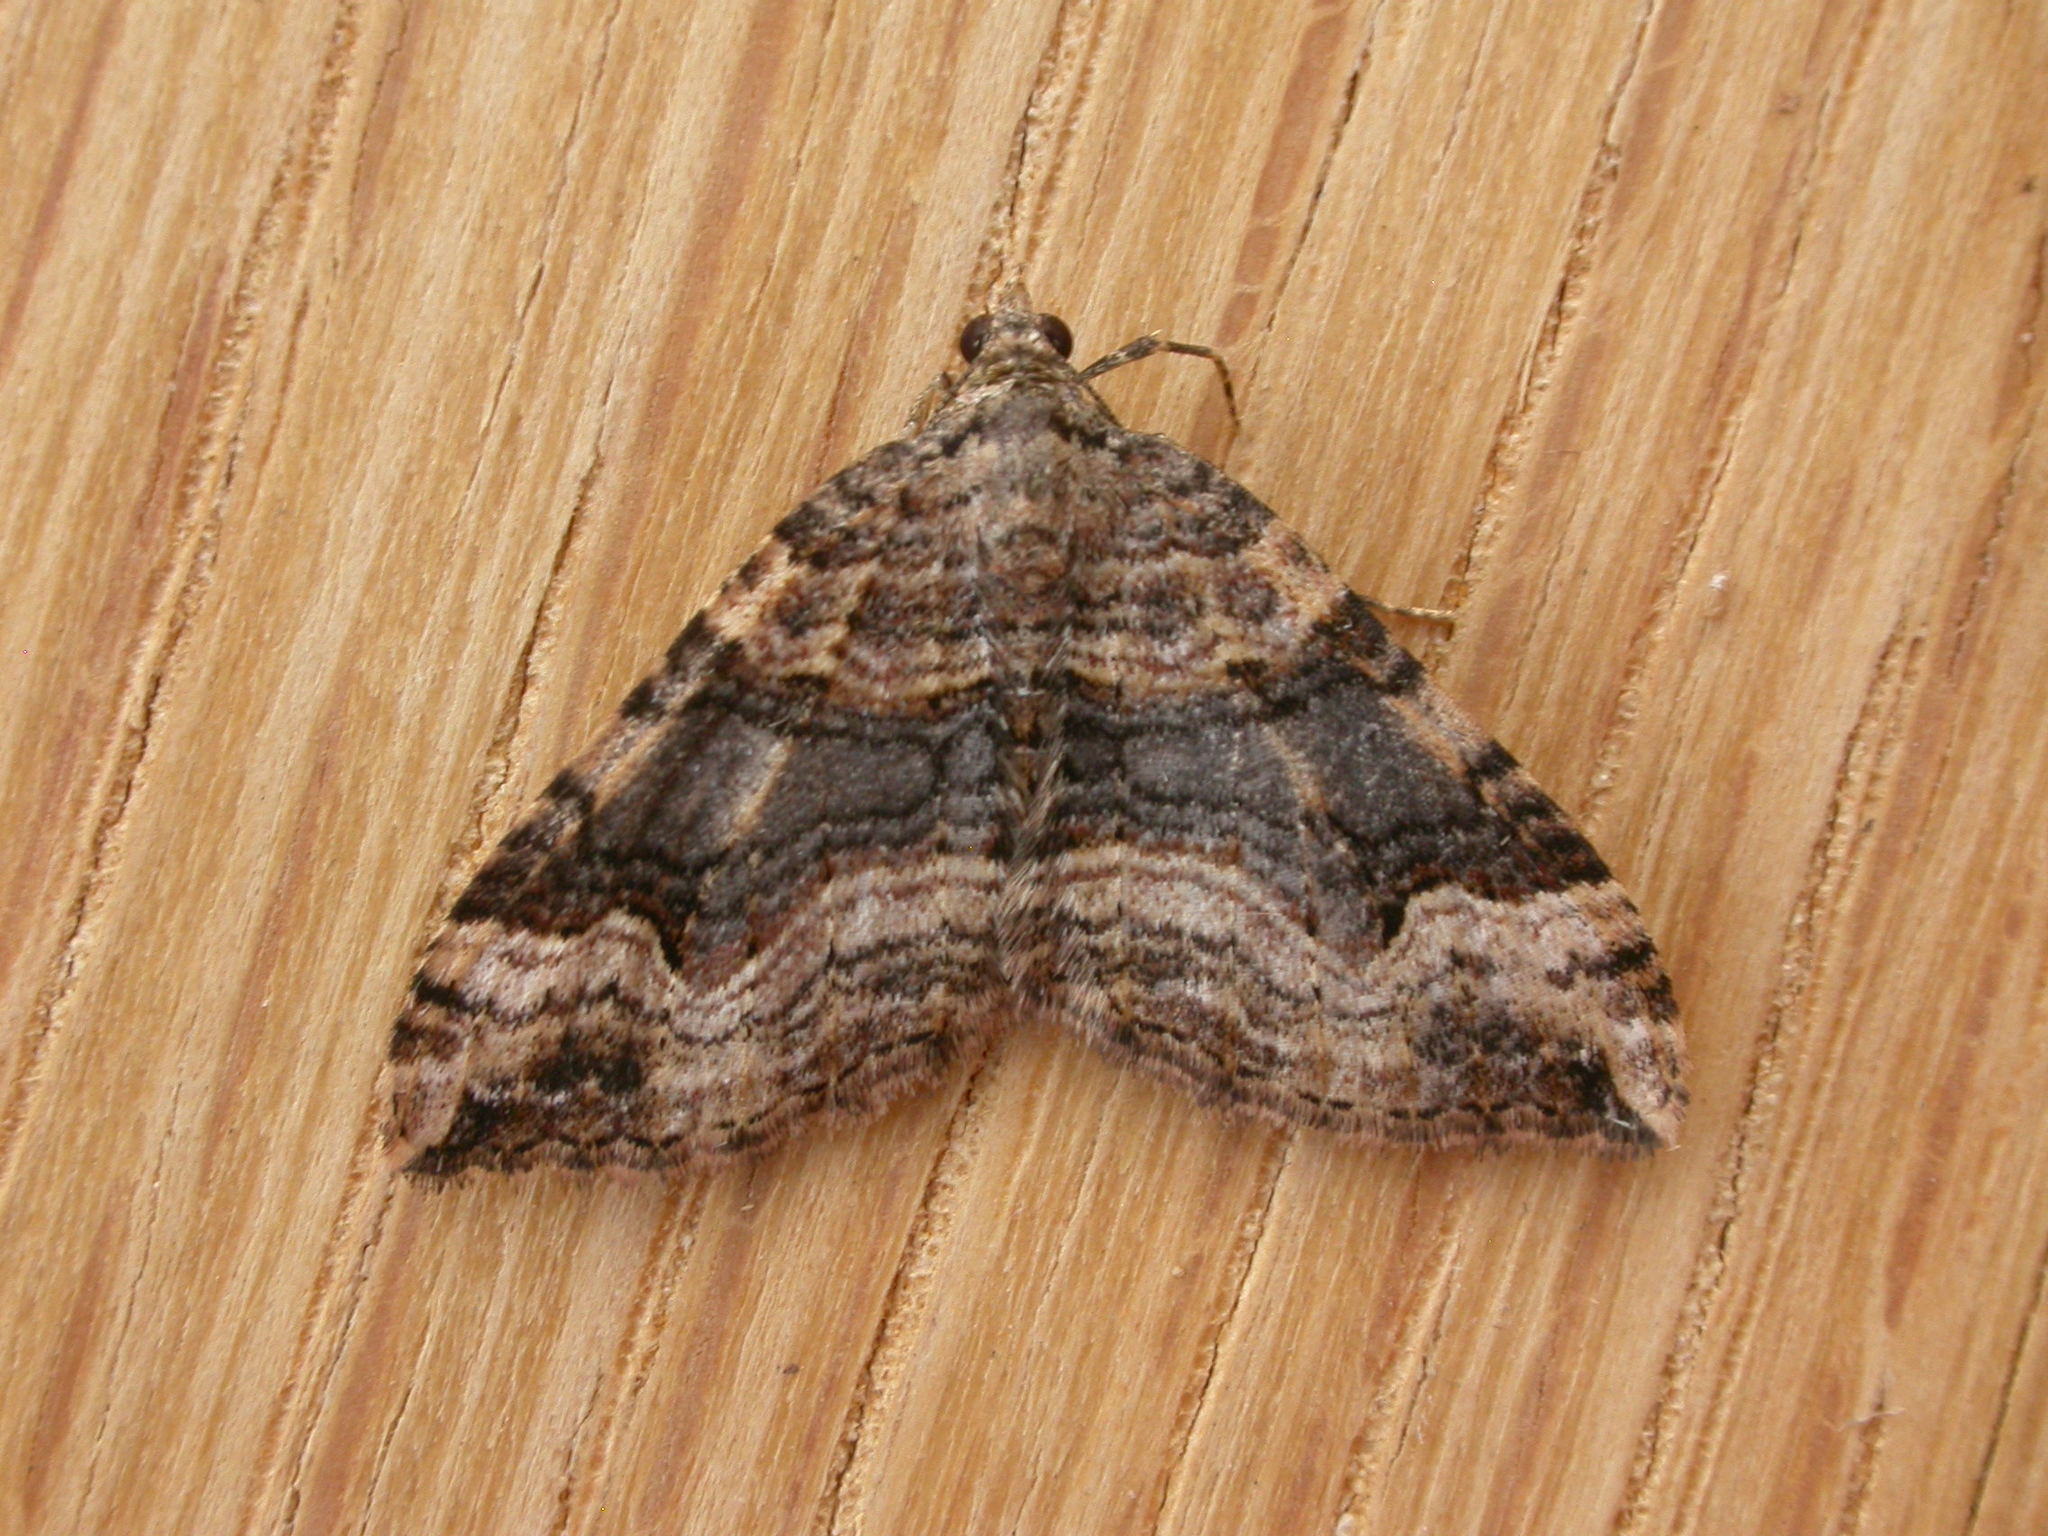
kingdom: Animalia
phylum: Arthropoda
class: Insecta
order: Lepidoptera
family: Geometridae
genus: Epyaxa
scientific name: Epyaxa subidaria
